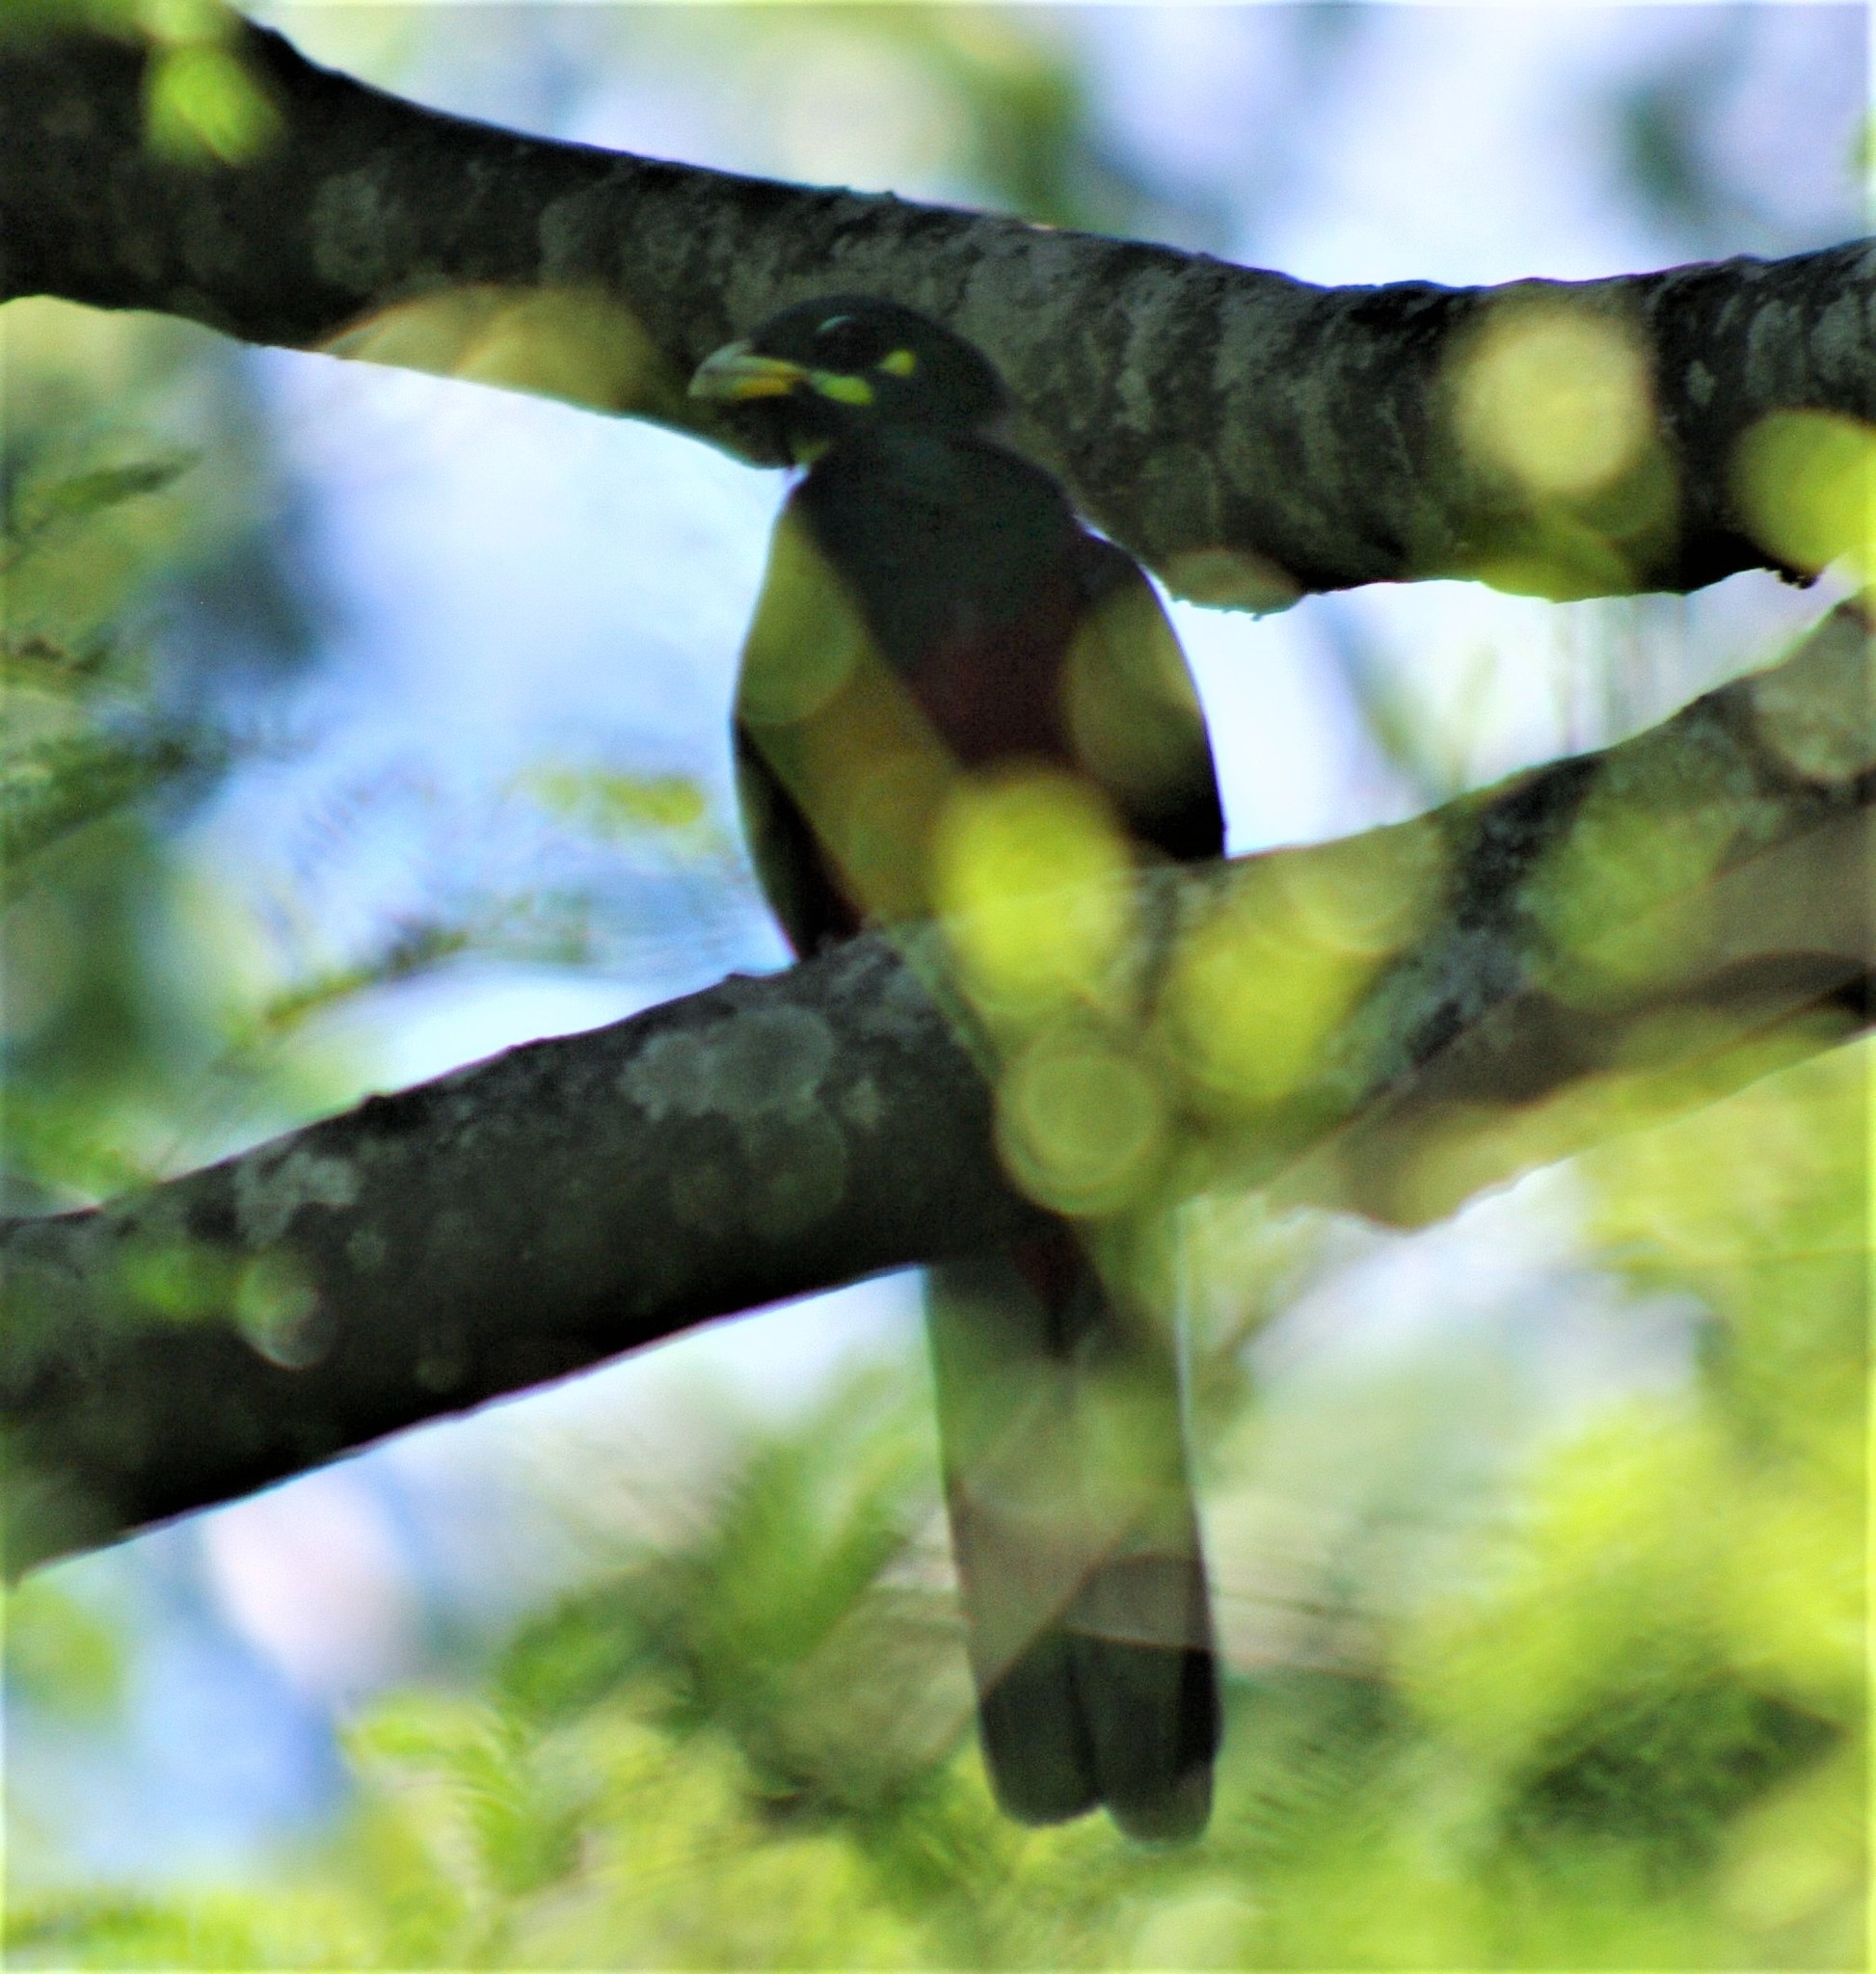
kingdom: Animalia
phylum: Chordata
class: Aves
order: Trogoniformes
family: Trogonidae
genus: Apaloderma
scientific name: Apaloderma narina
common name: Narina trogon
